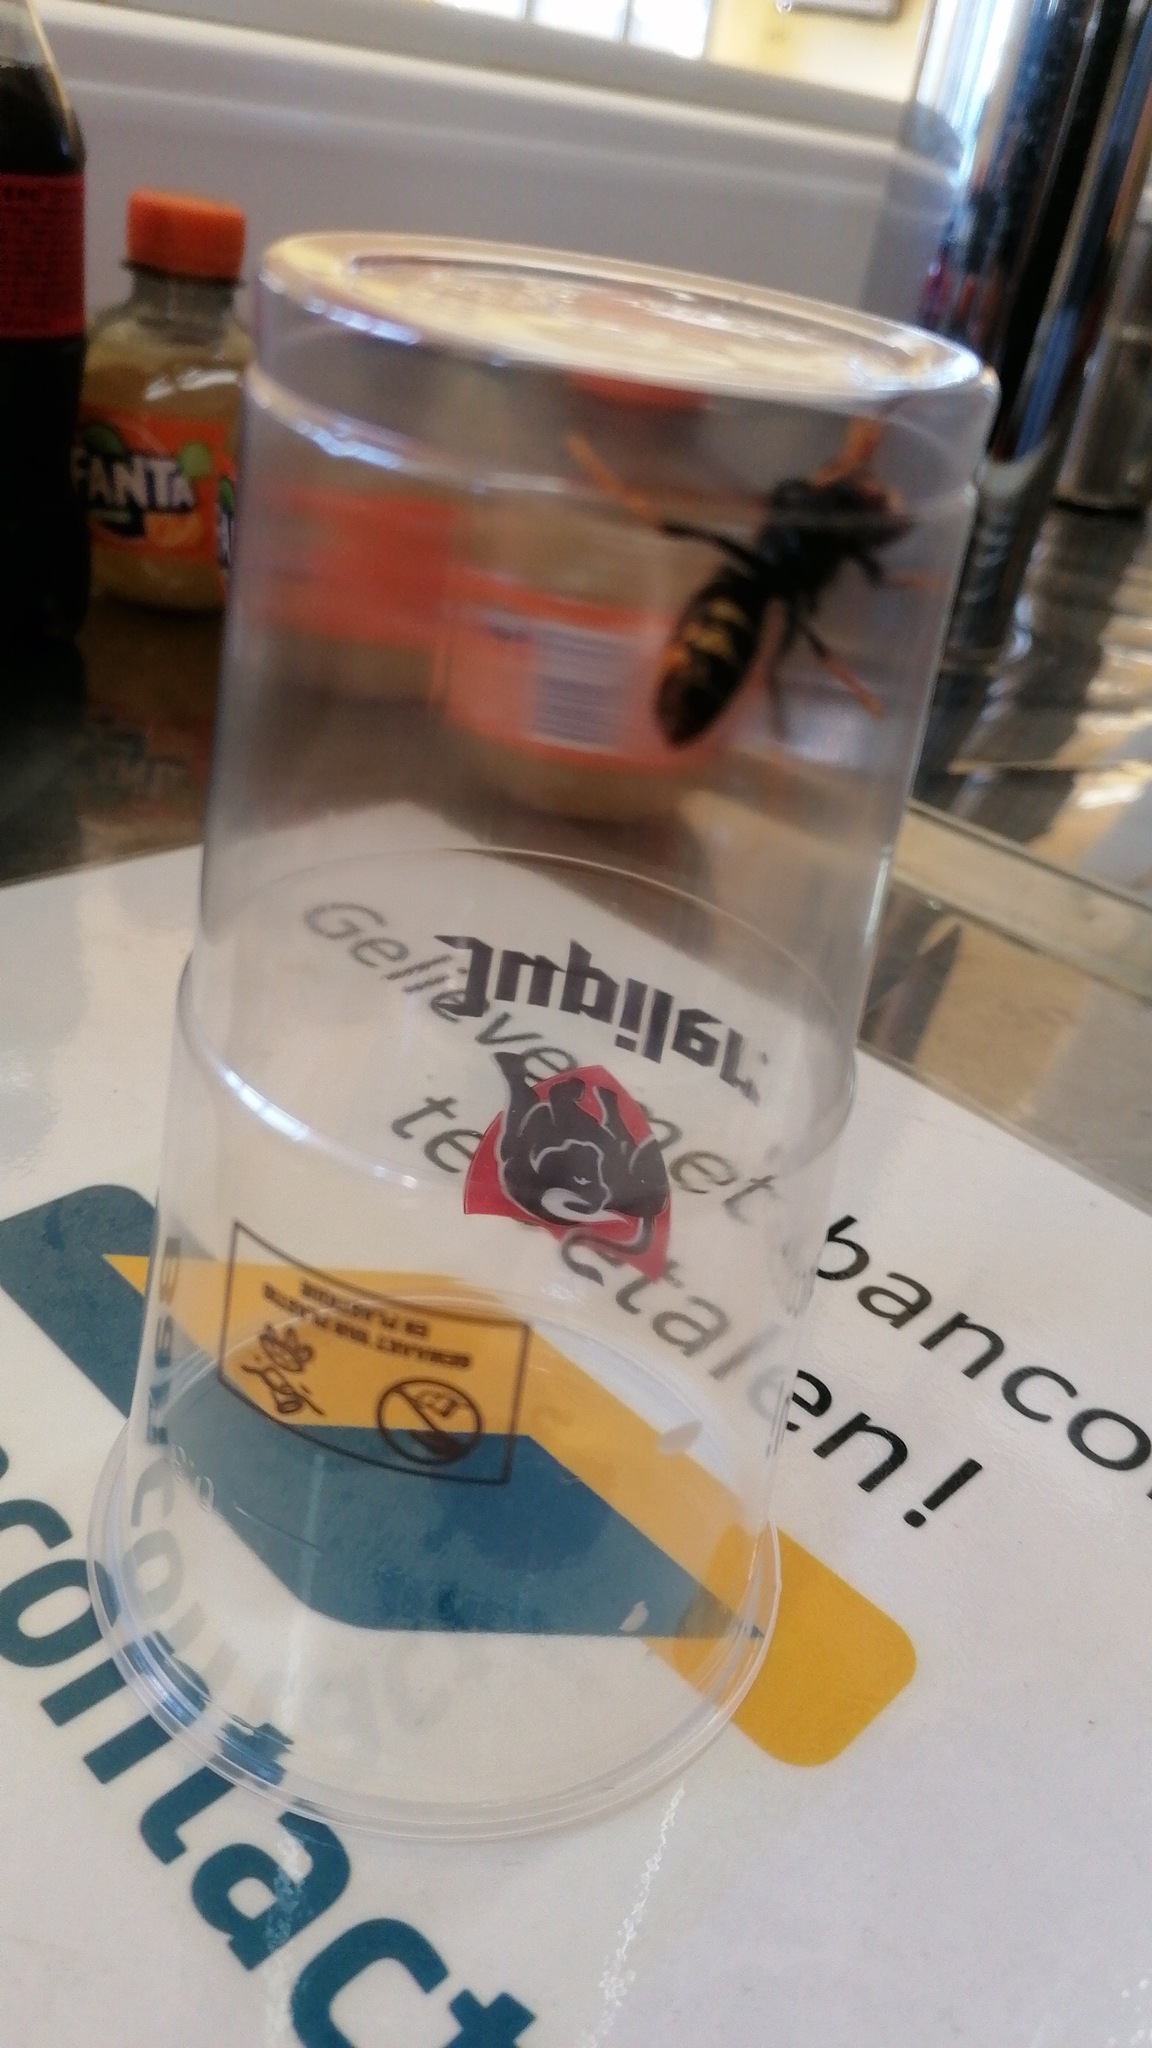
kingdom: Animalia
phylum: Arthropoda
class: Insecta
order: Hymenoptera
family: Vespidae
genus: Vespa
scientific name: Vespa velutina
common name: Asian hornet
